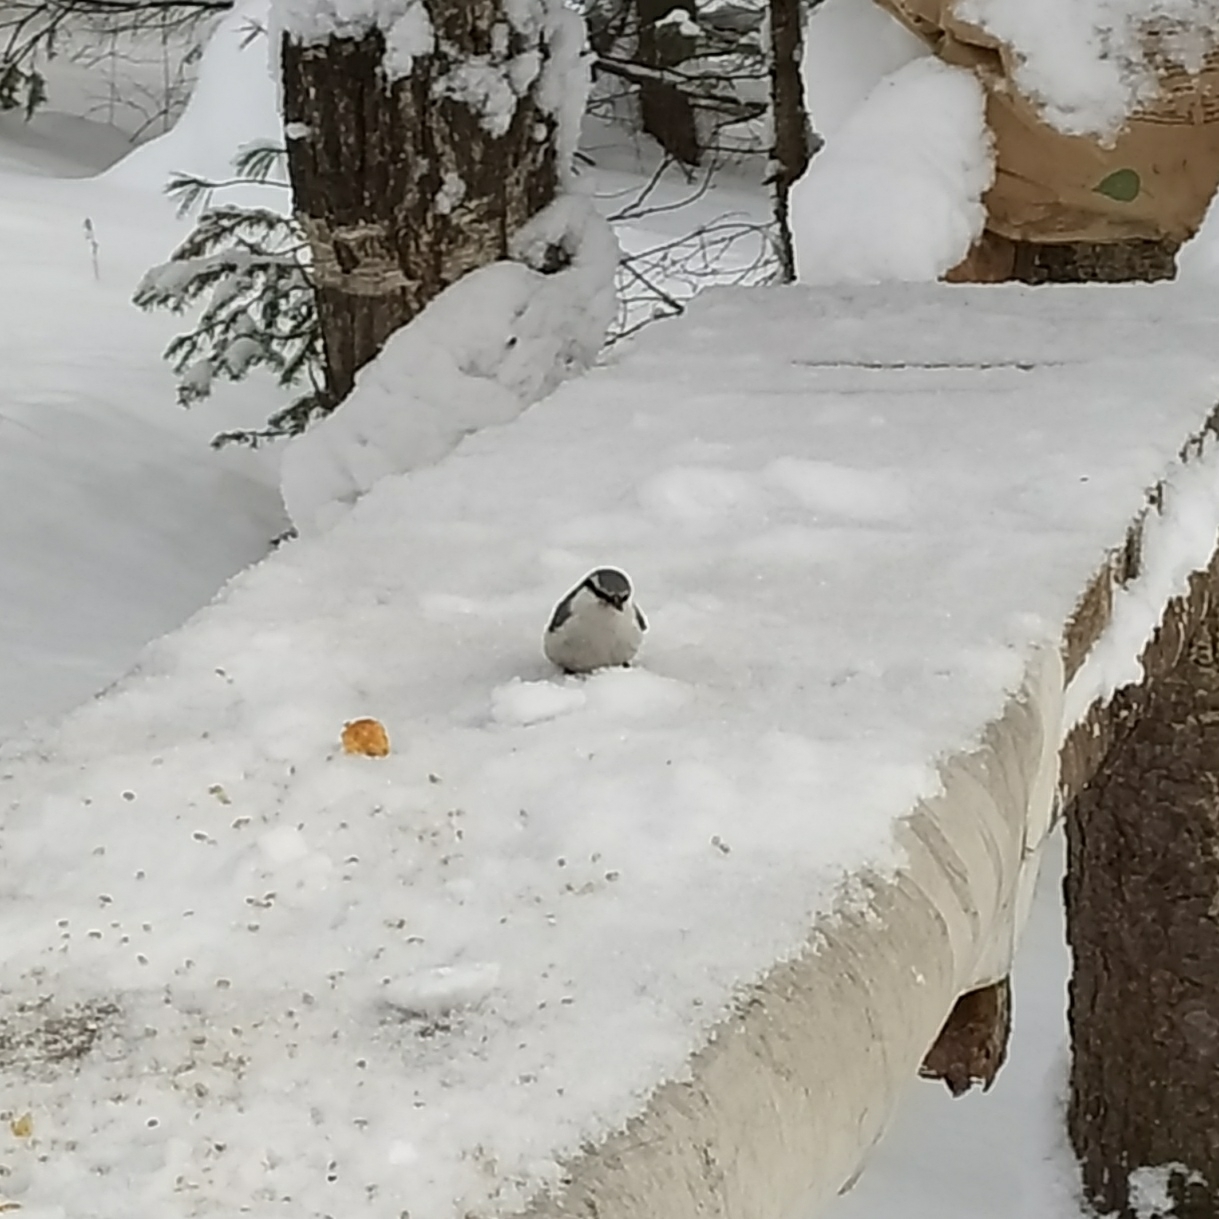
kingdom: Animalia
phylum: Chordata
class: Aves
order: Passeriformes
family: Sittidae
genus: Sitta
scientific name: Sitta europaea
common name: Eurasian nuthatch
